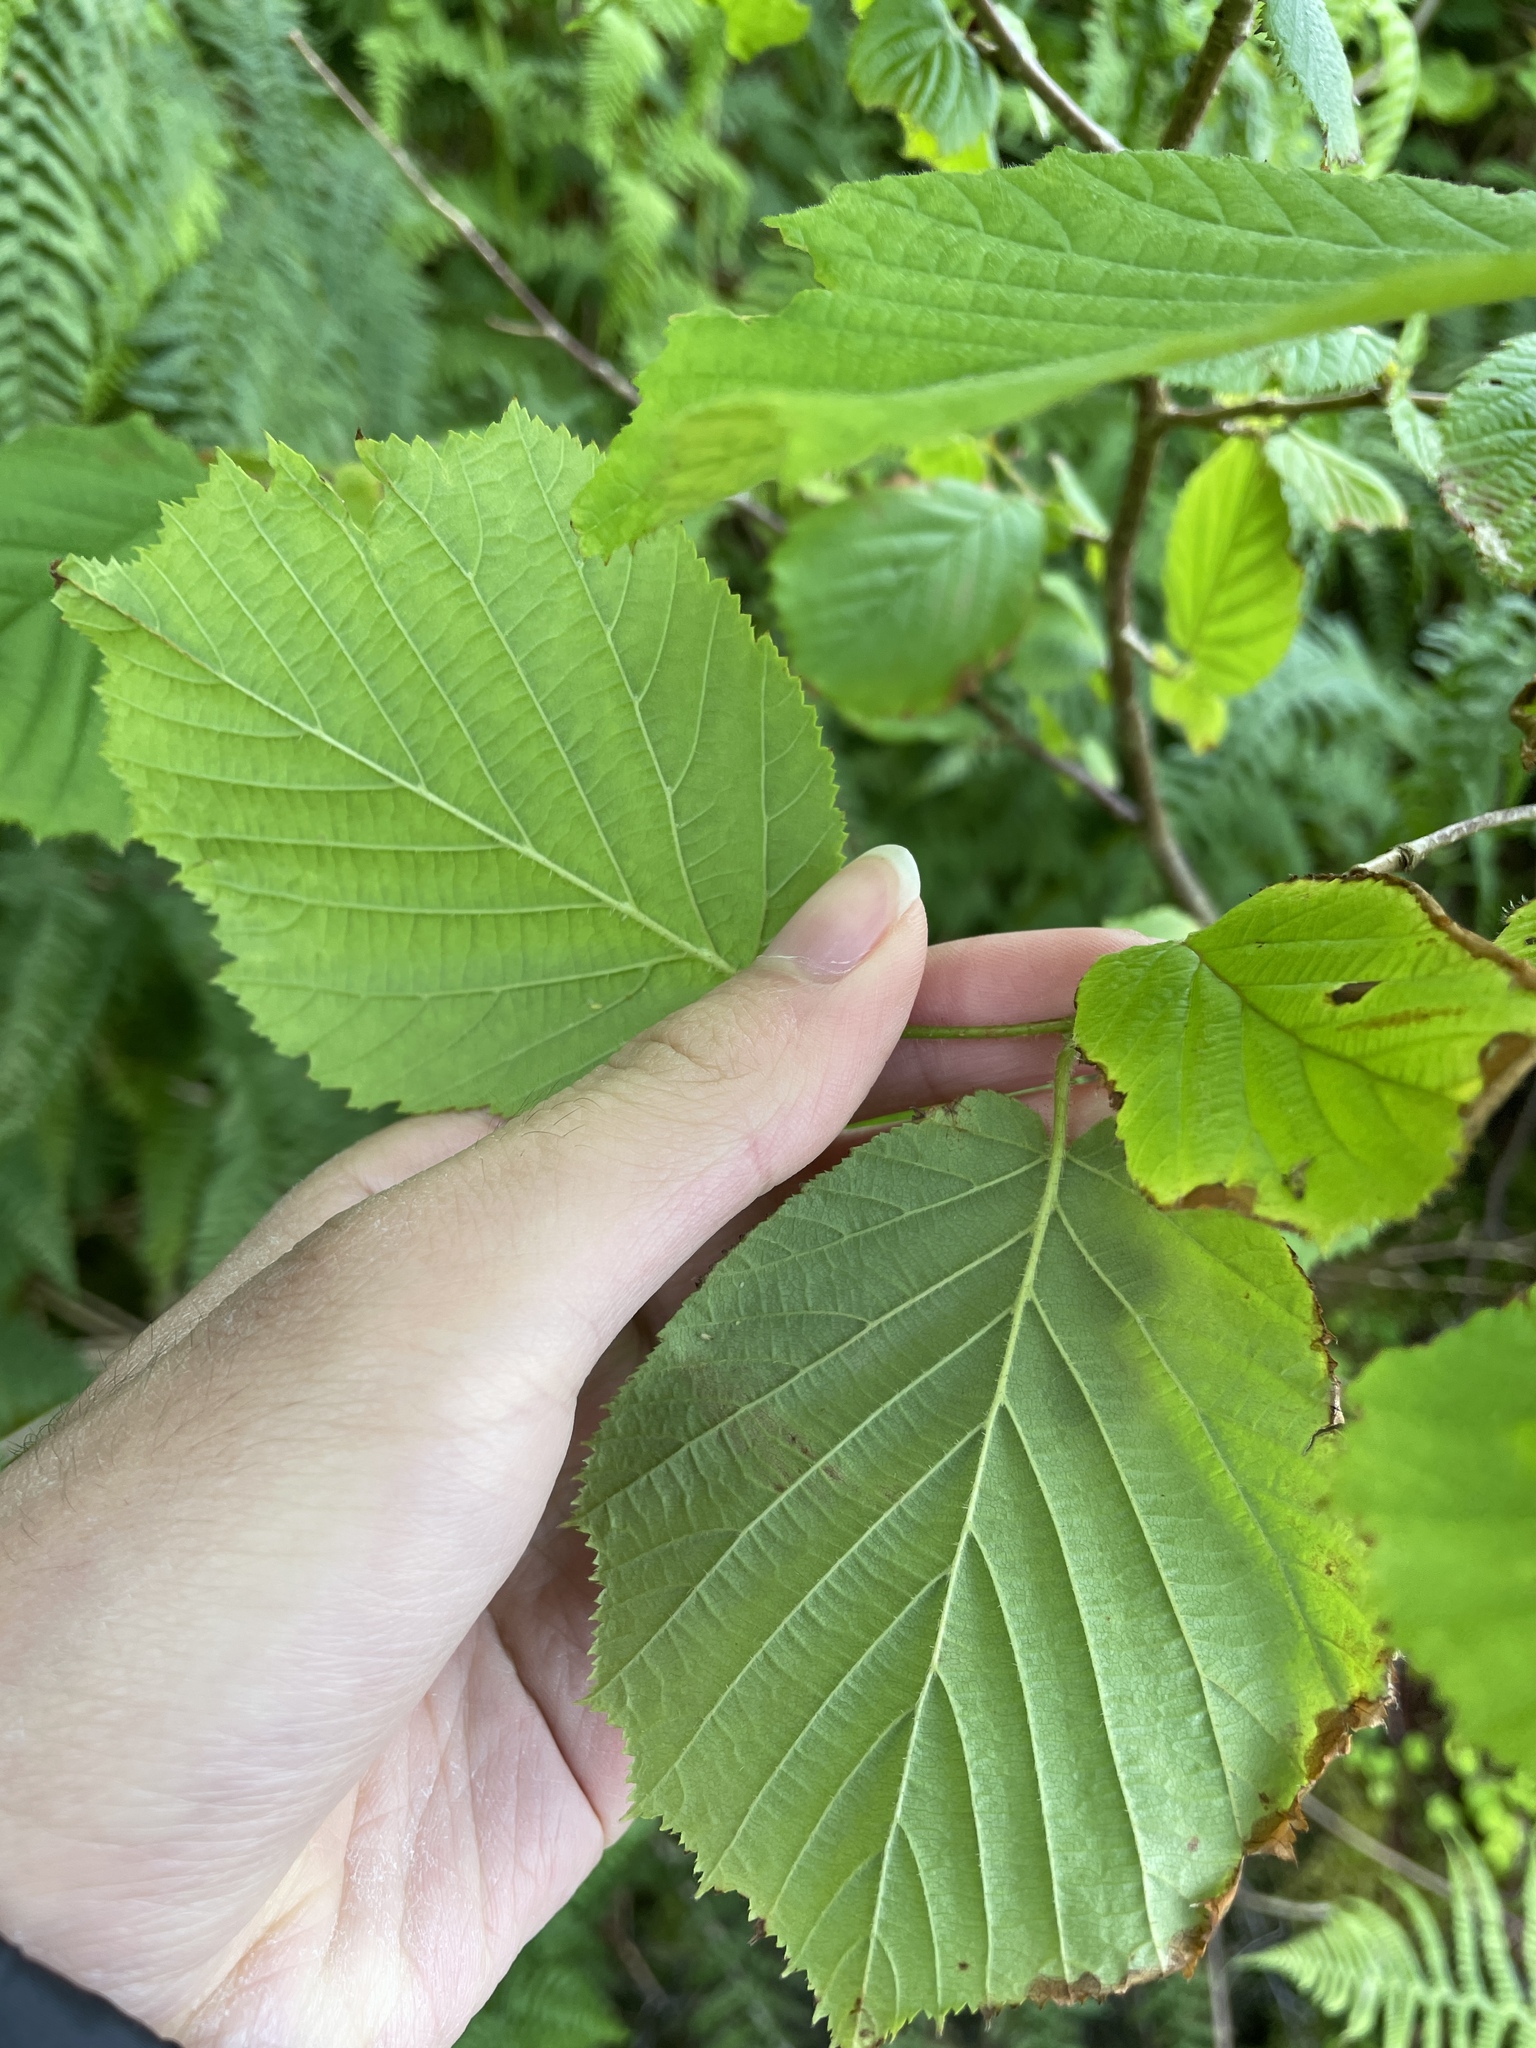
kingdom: Plantae
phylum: Tracheophyta
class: Magnoliopsida
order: Fagales
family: Betulaceae
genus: Corylus
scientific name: Corylus avellana
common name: European hazel
